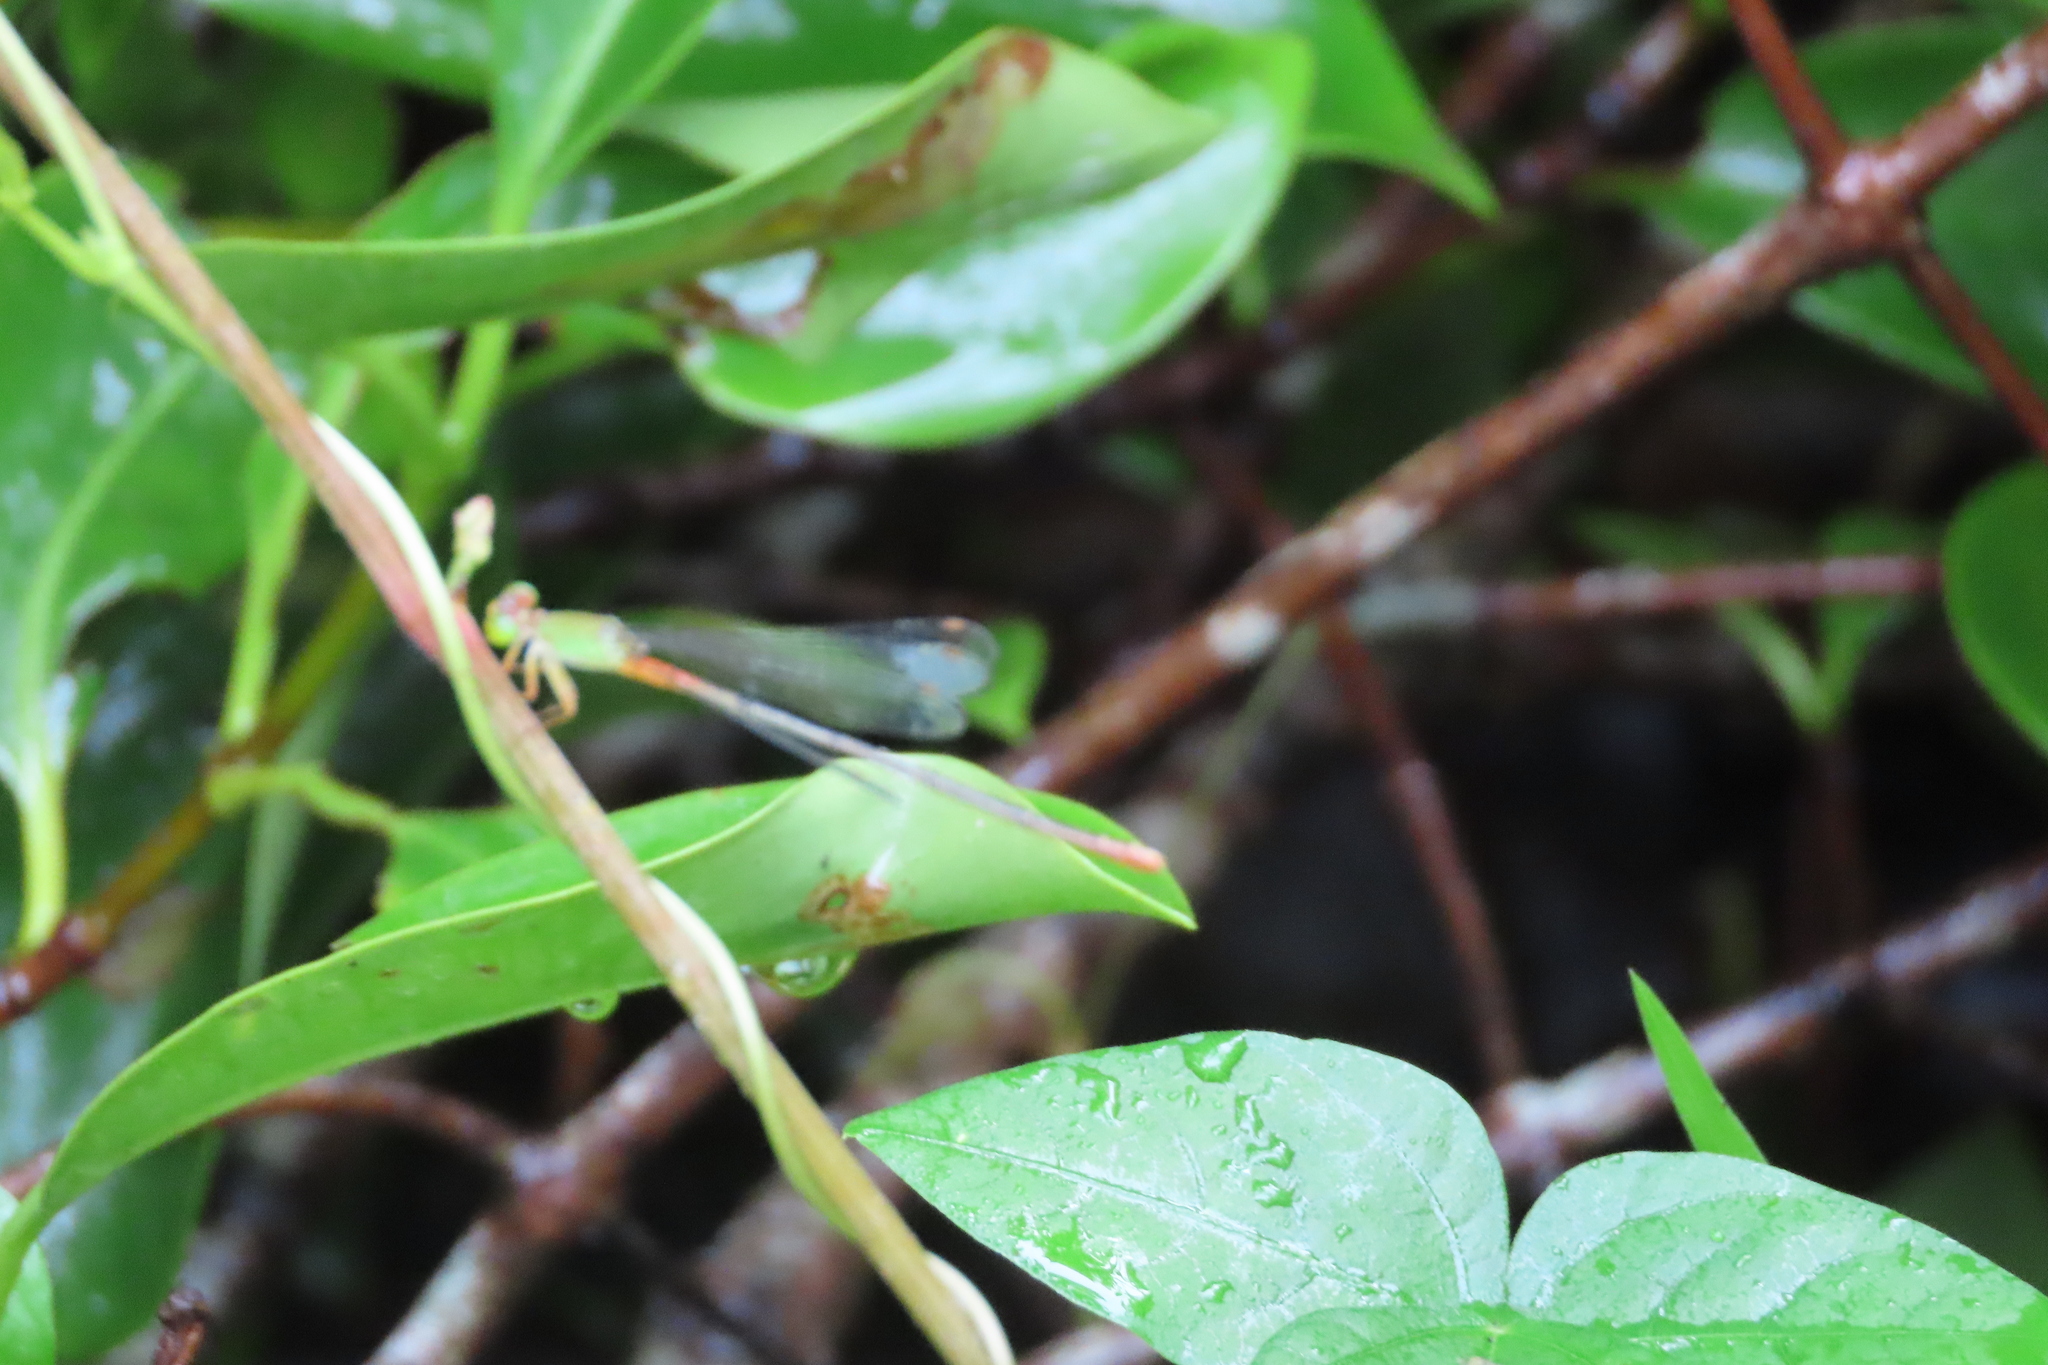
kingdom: Animalia
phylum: Arthropoda
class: Insecta
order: Odonata
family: Coenagrionidae
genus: Ceriagrion
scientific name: Ceriagrion cerinorubellum
